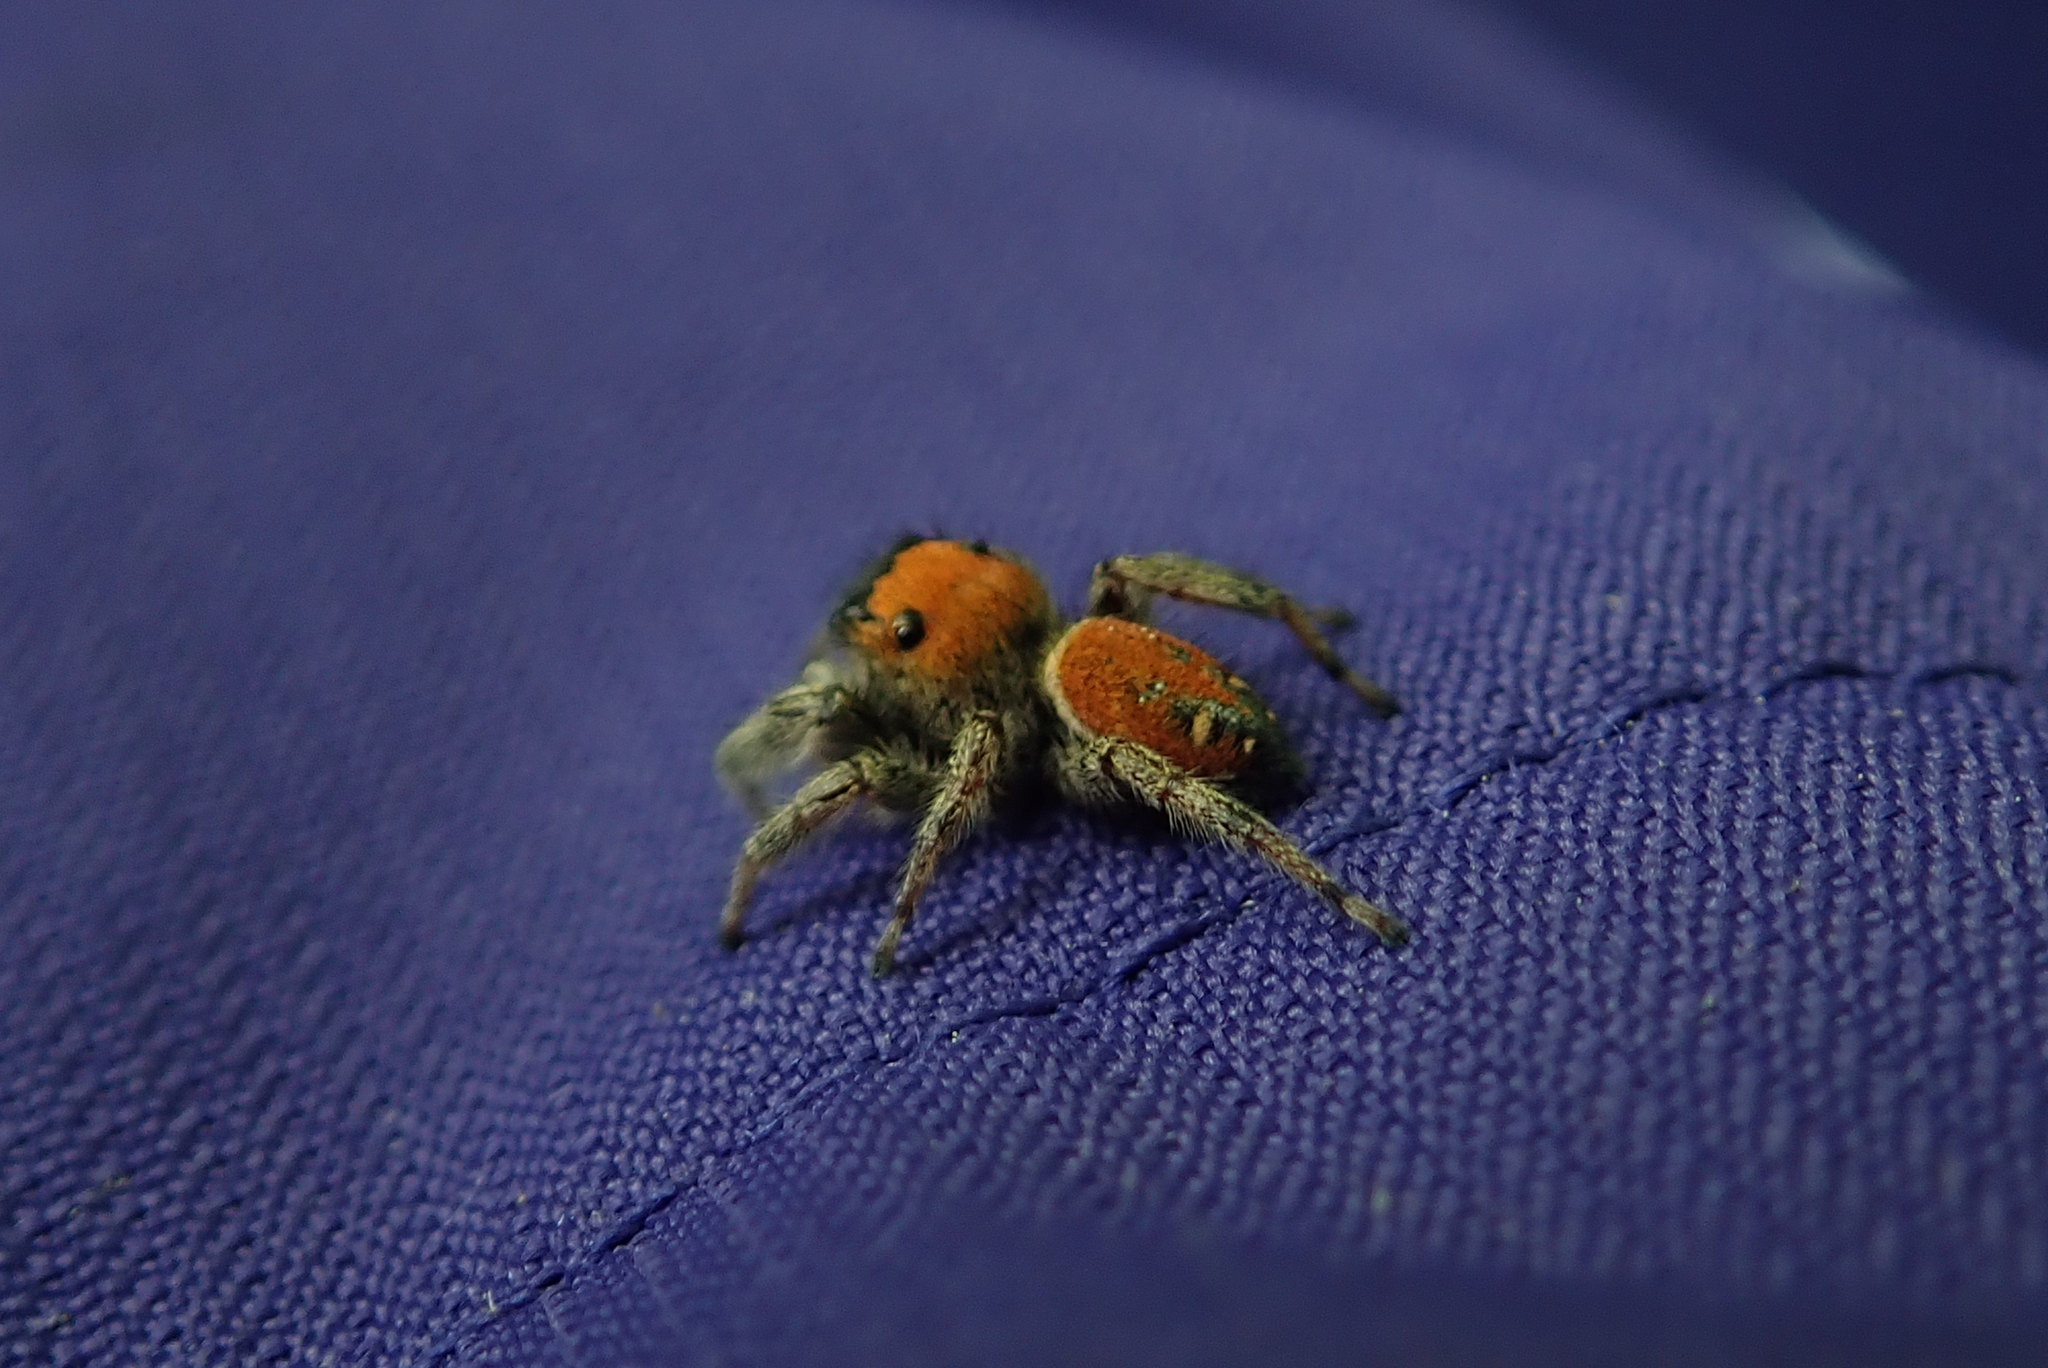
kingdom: Animalia
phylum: Arthropoda
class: Arachnida
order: Araneae
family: Salticidae
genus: Phidippus
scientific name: Phidippus whitmani
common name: Whitman's jumping spider
